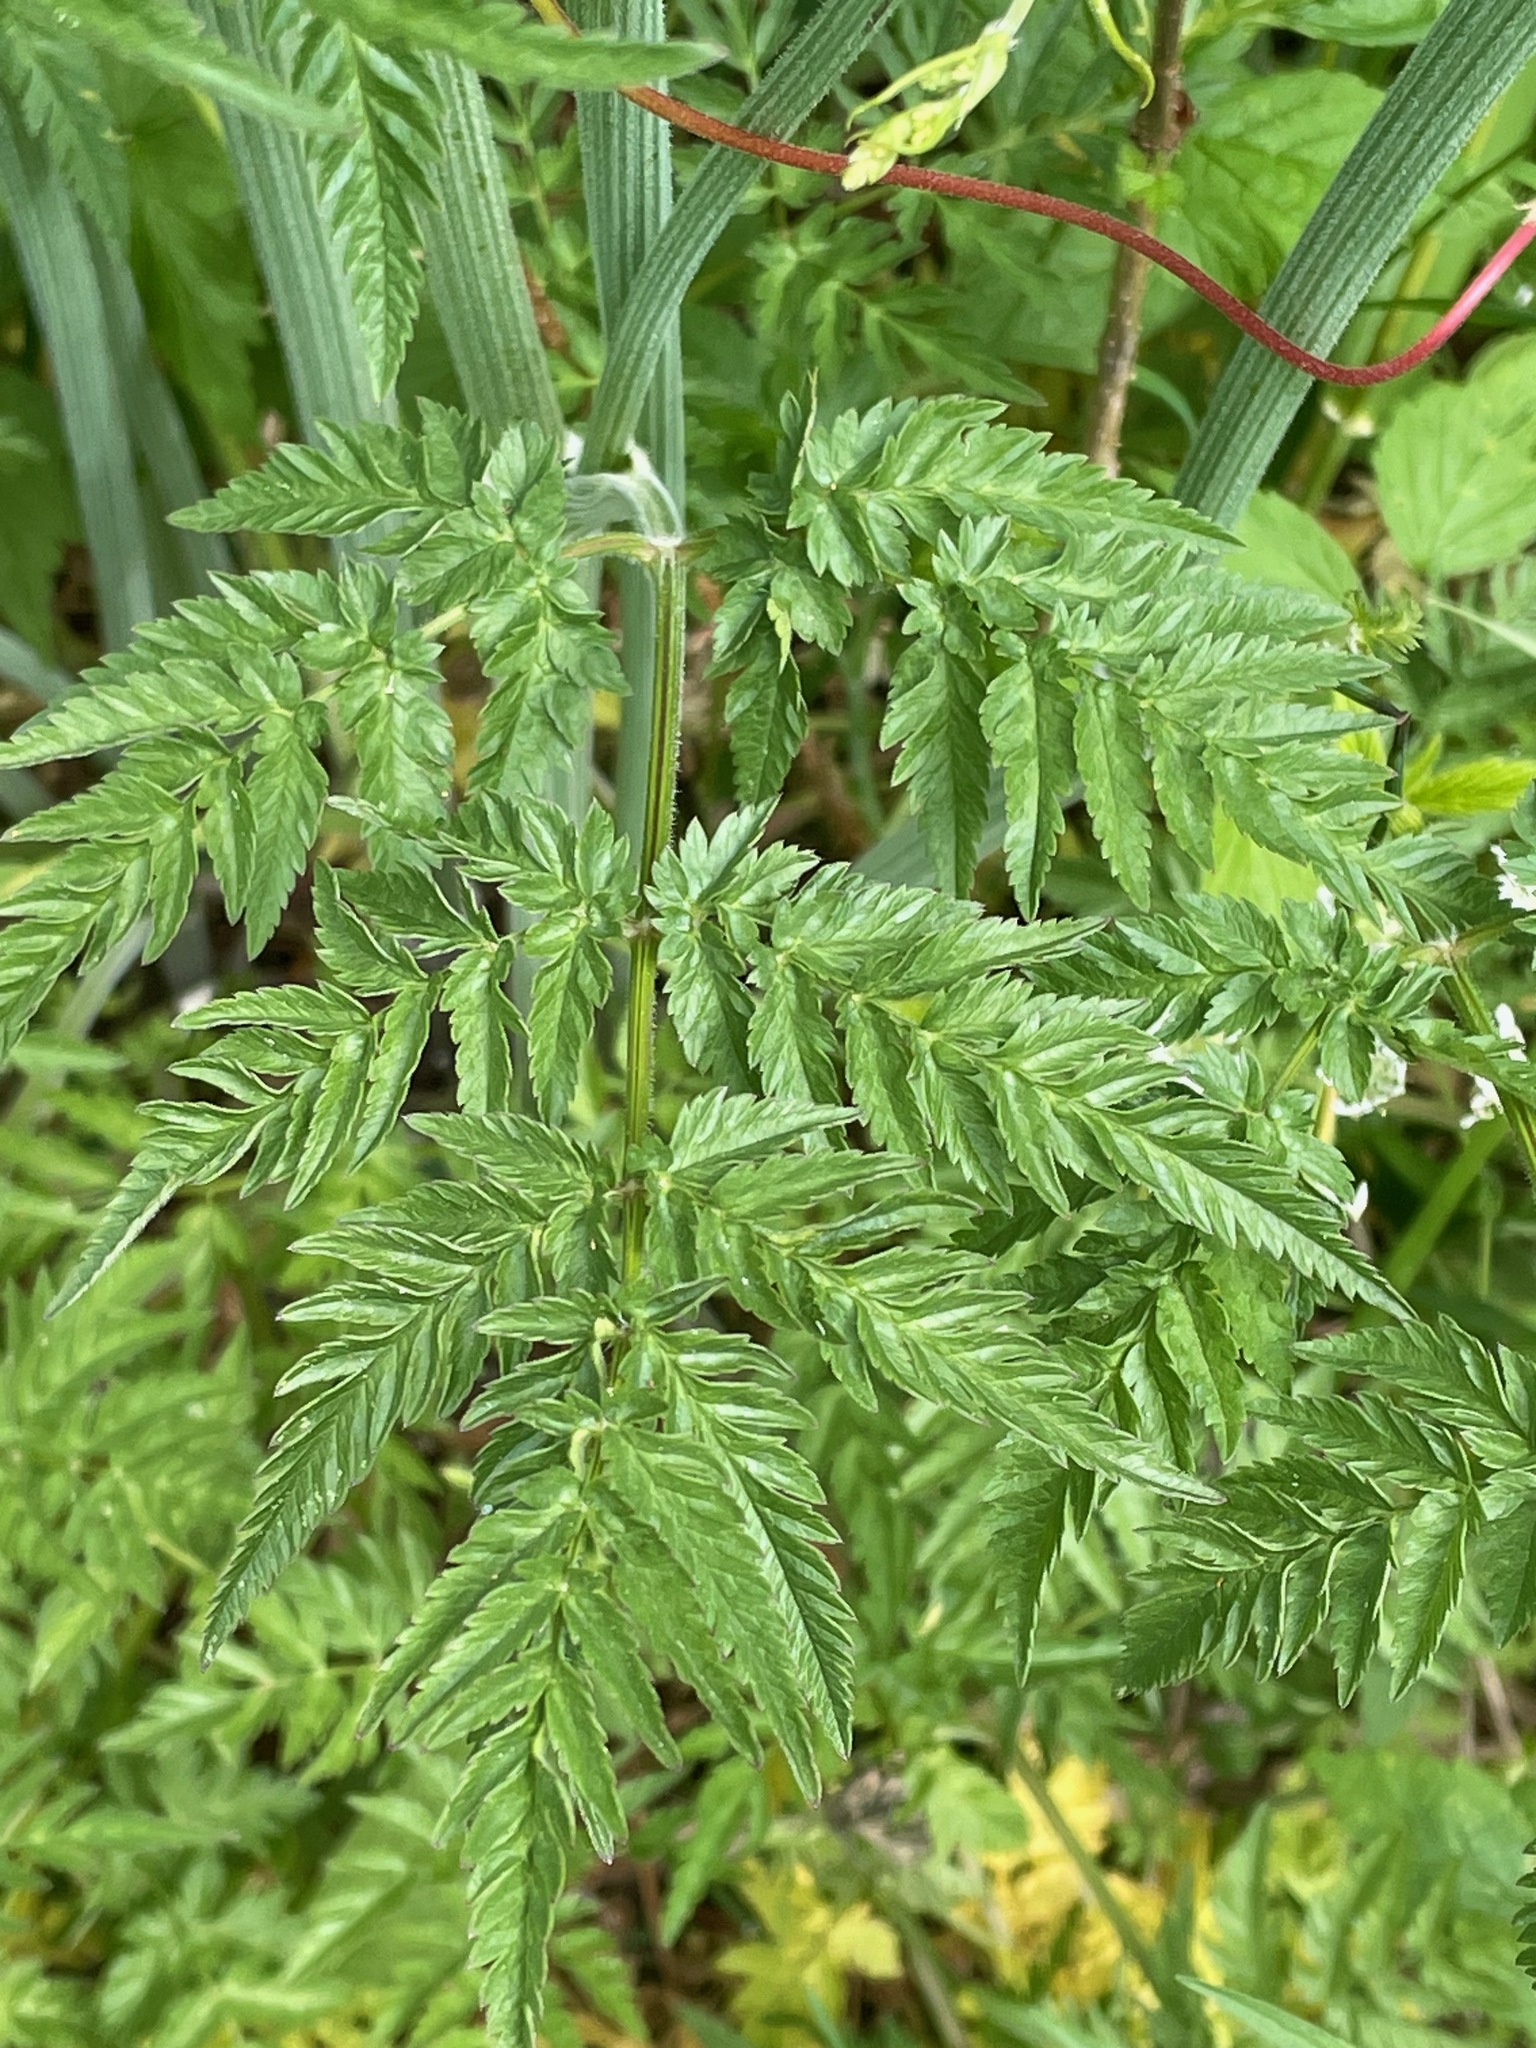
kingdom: Plantae
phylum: Tracheophyta
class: Magnoliopsida
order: Apiales
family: Apiaceae
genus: Anthriscus
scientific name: Anthriscus sylvestris
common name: Cow parsley
